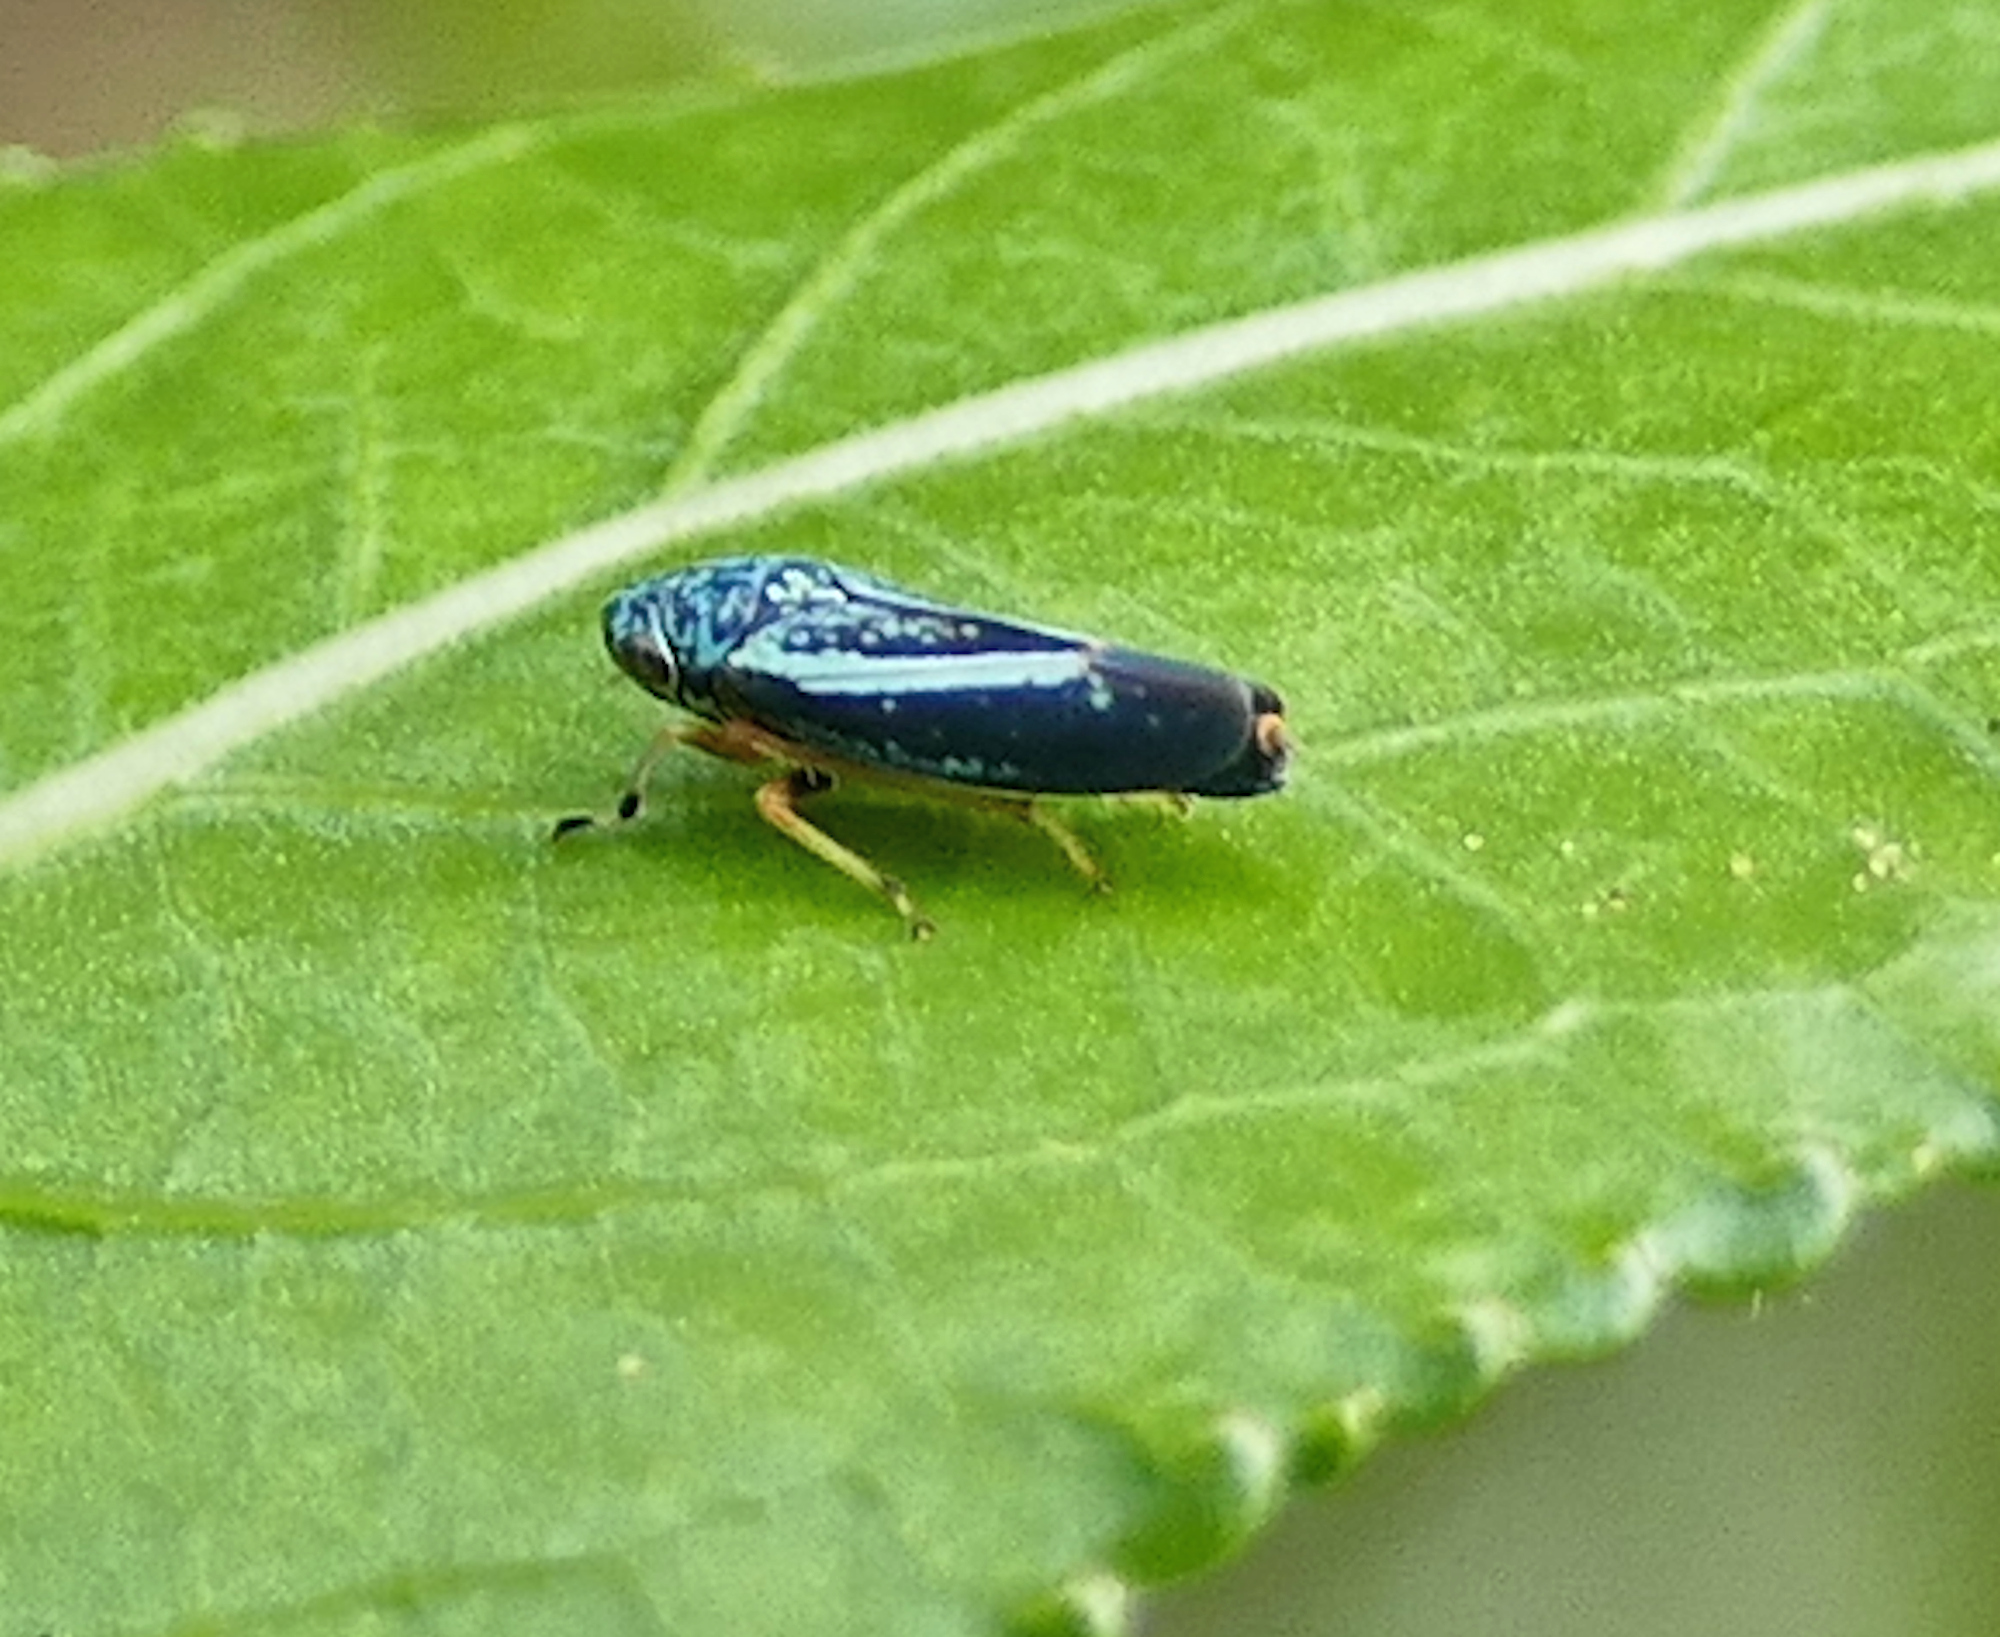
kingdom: Animalia
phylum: Arthropoda
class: Insecta
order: Hemiptera
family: Cicadellidae
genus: Graphocephala
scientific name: Graphocephala lugubris
